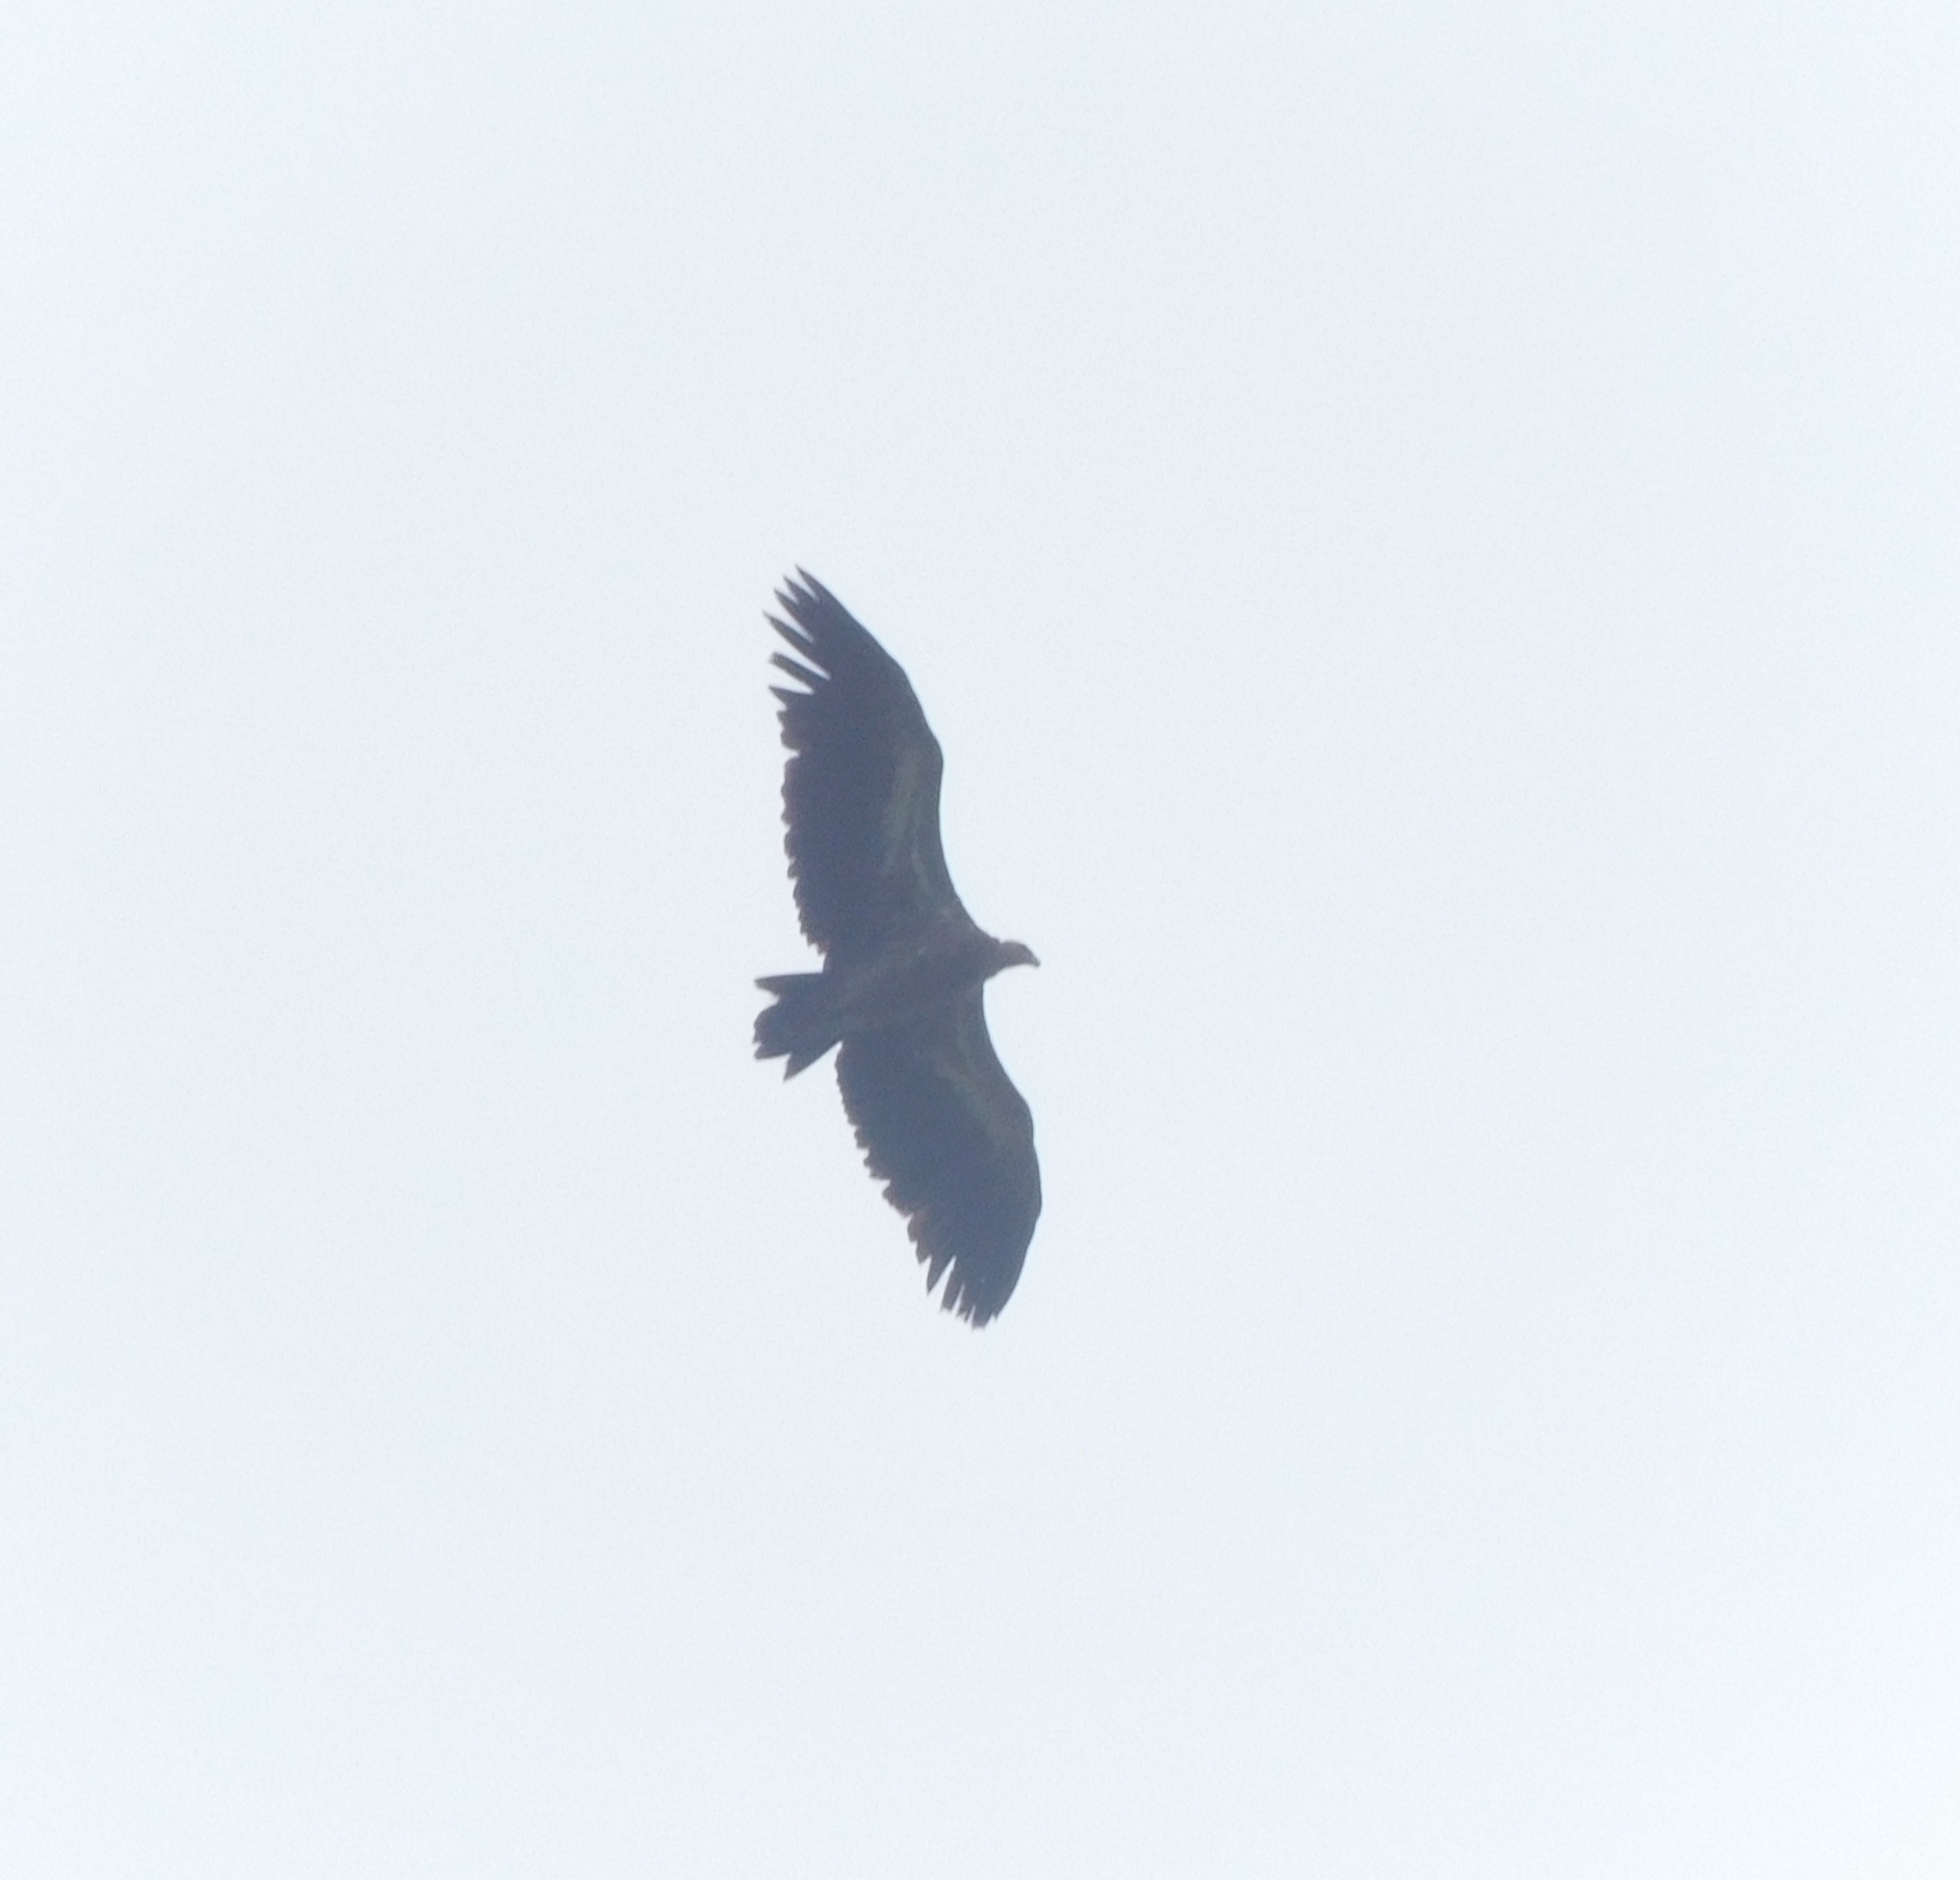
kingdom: Animalia
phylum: Chordata
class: Aves
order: Accipitriformes
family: Accipitridae
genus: Gyps
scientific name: Gyps himalayensis
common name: Himalayan griffon
